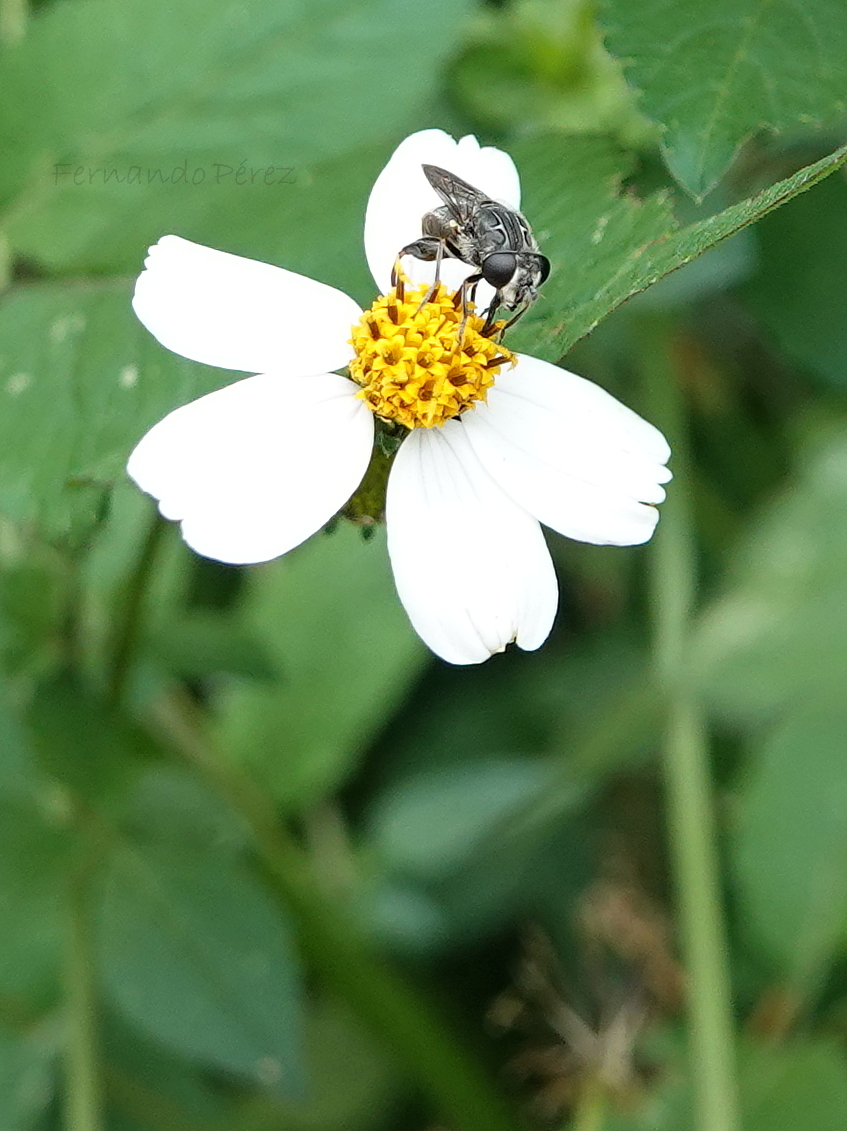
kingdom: Animalia
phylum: Arthropoda
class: Insecta
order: Diptera
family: Syrphidae
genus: Asemosyrphus
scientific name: Asemosyrphus
